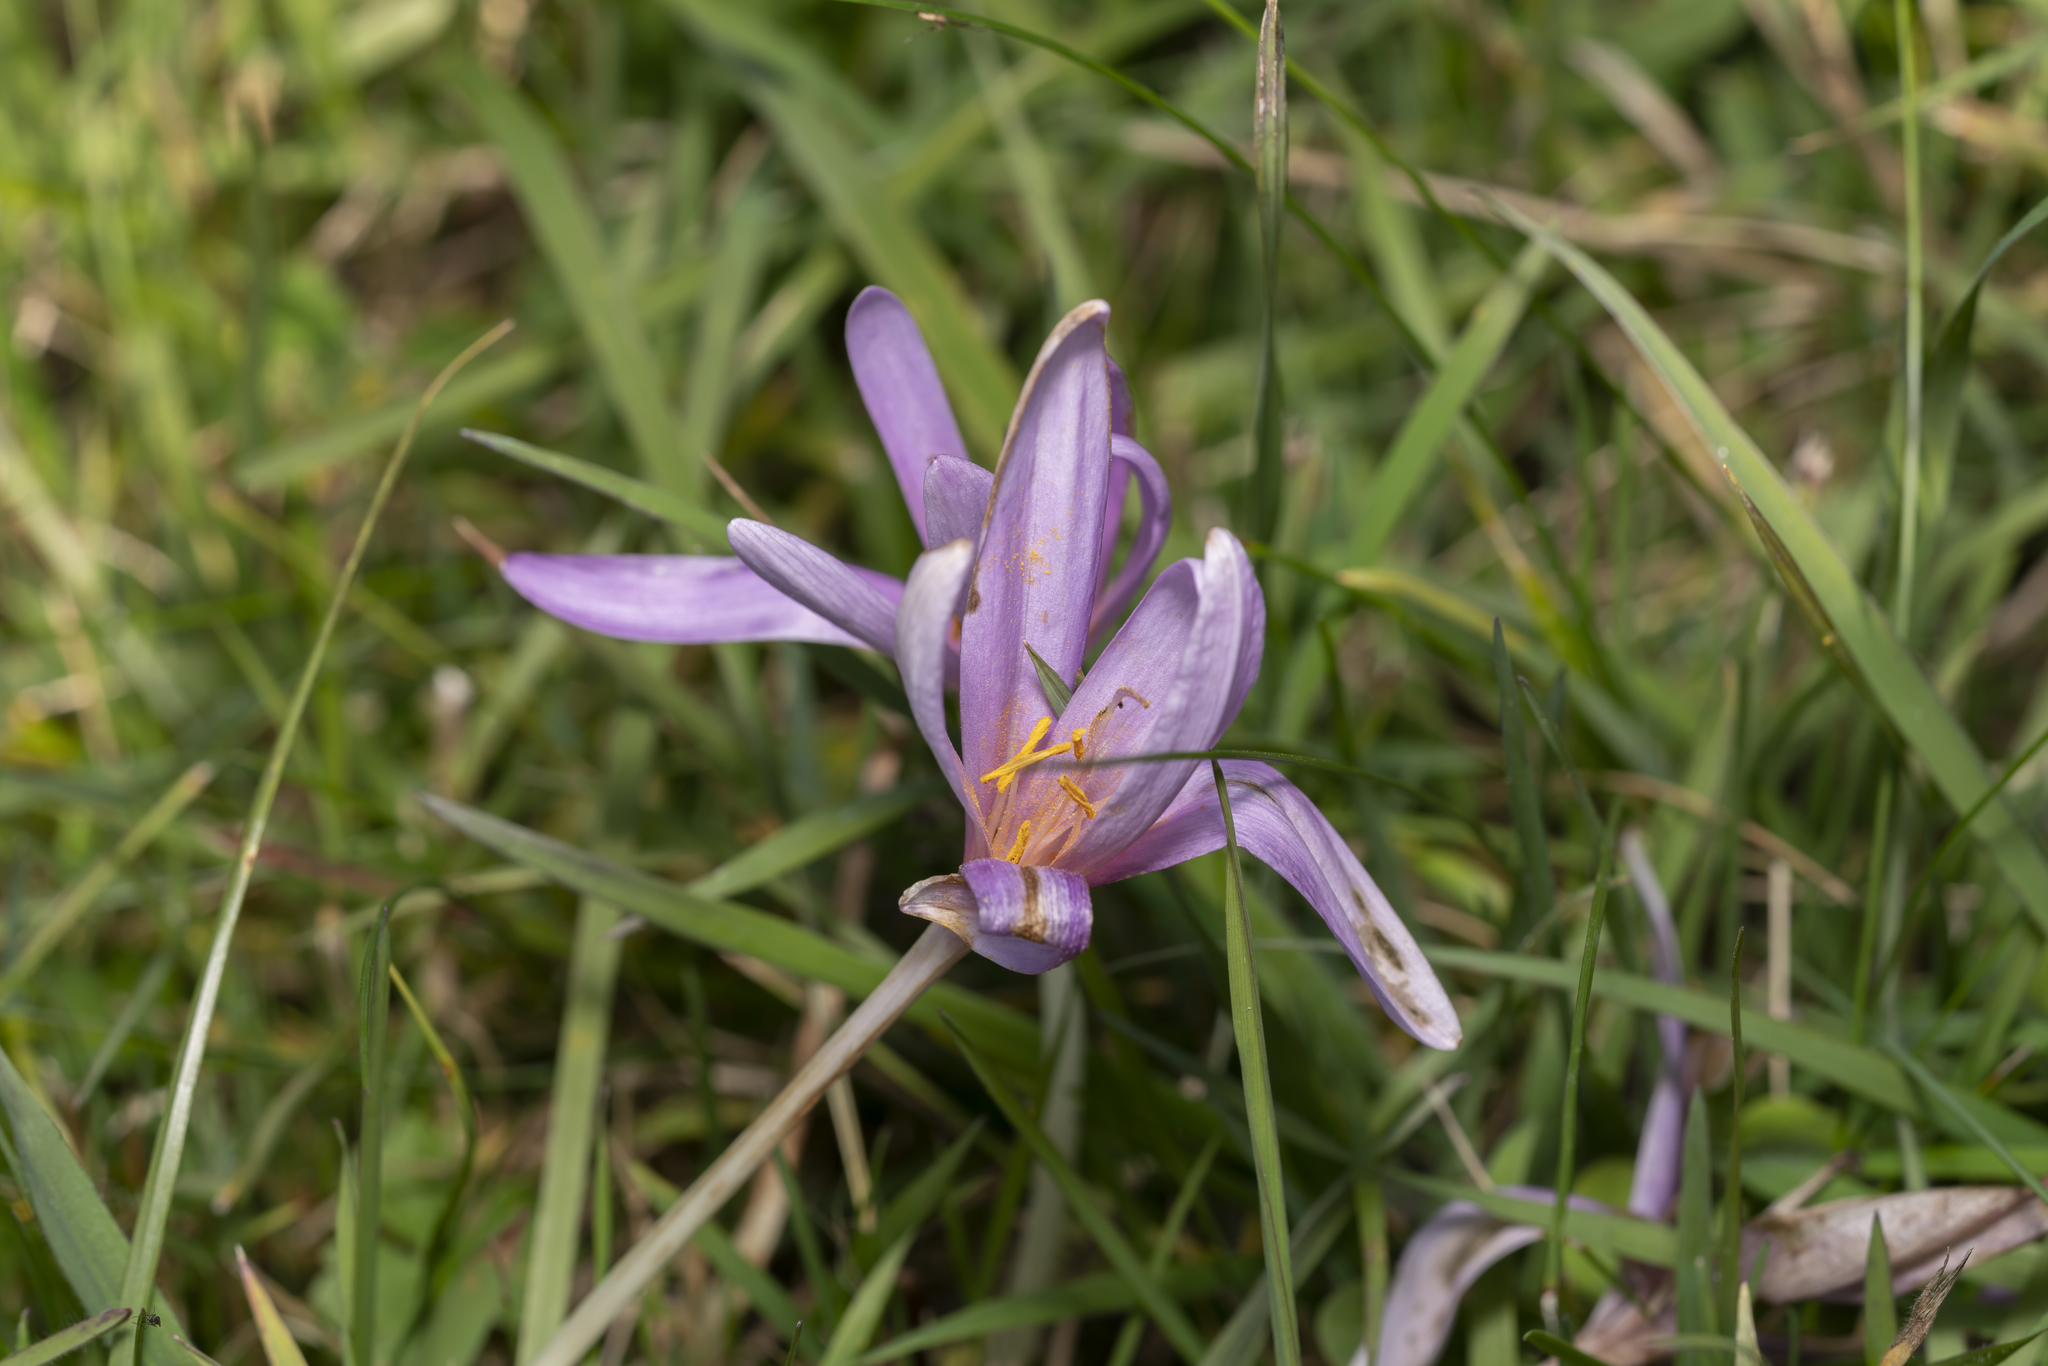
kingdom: Plantae
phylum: Tracheophyta
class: Liliopsida
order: Liliales
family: Colchicaceae
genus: Colchicum
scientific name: Colchicum autumnale
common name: Autumn crocus
